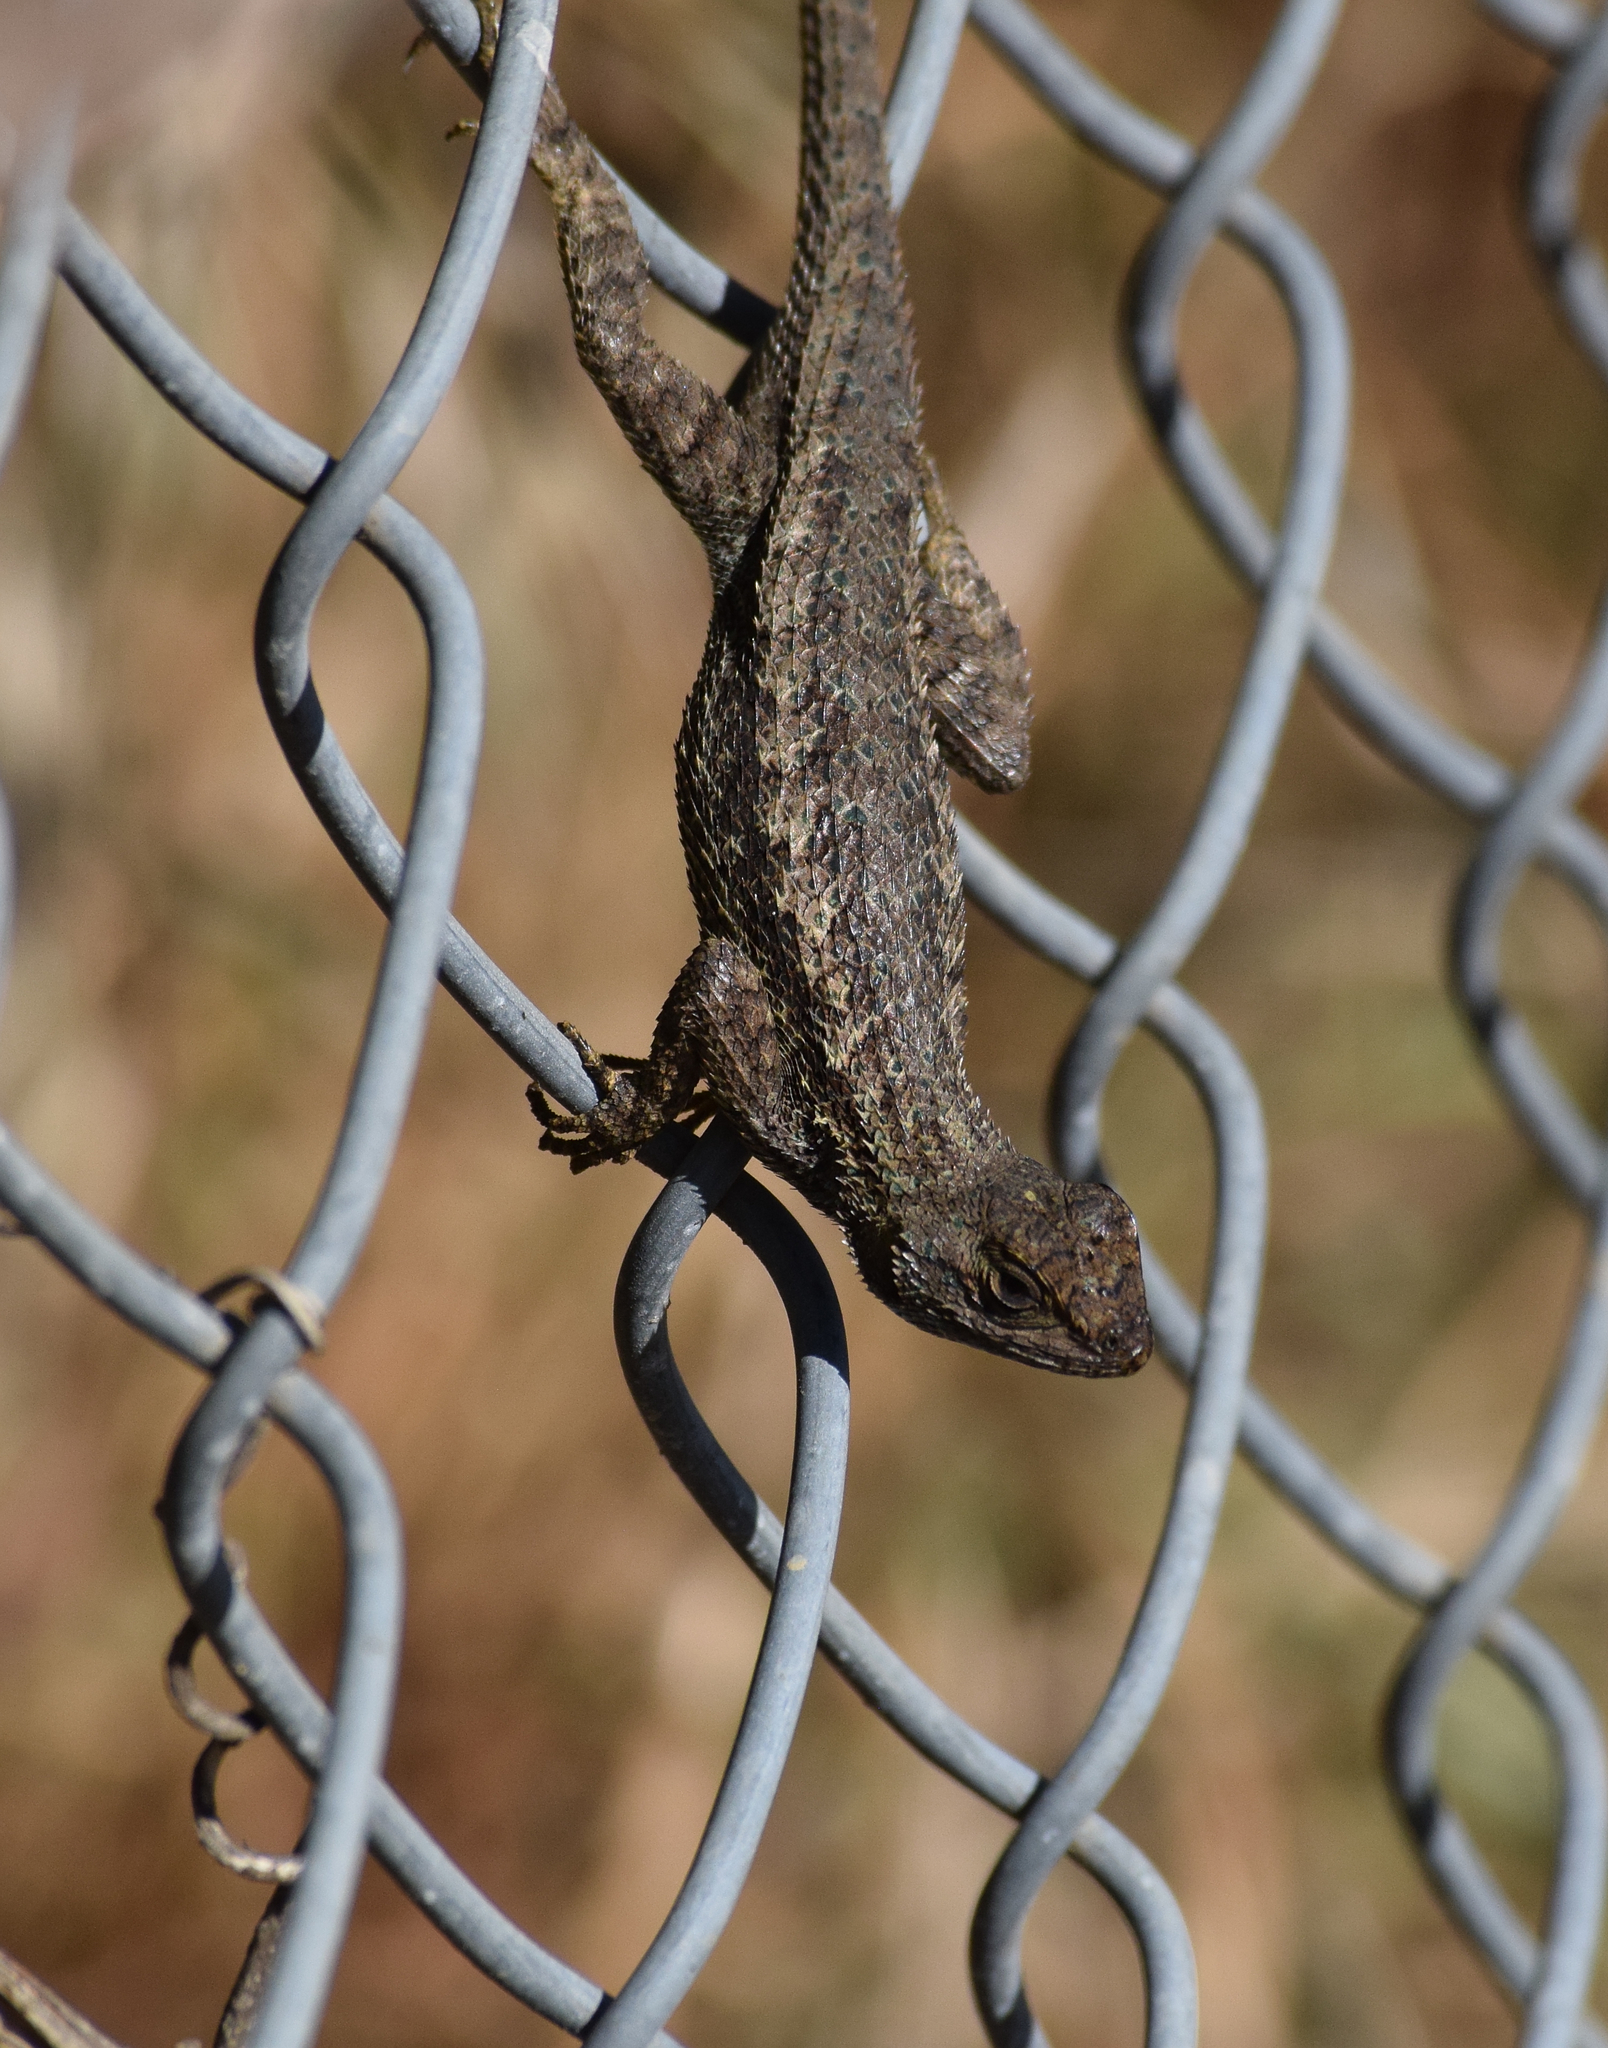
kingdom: Animalia
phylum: Chordata
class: Squamata
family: Phrynosomatidae
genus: Sceloporus
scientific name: Sceloporus occidentalis
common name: Western fence lizard
